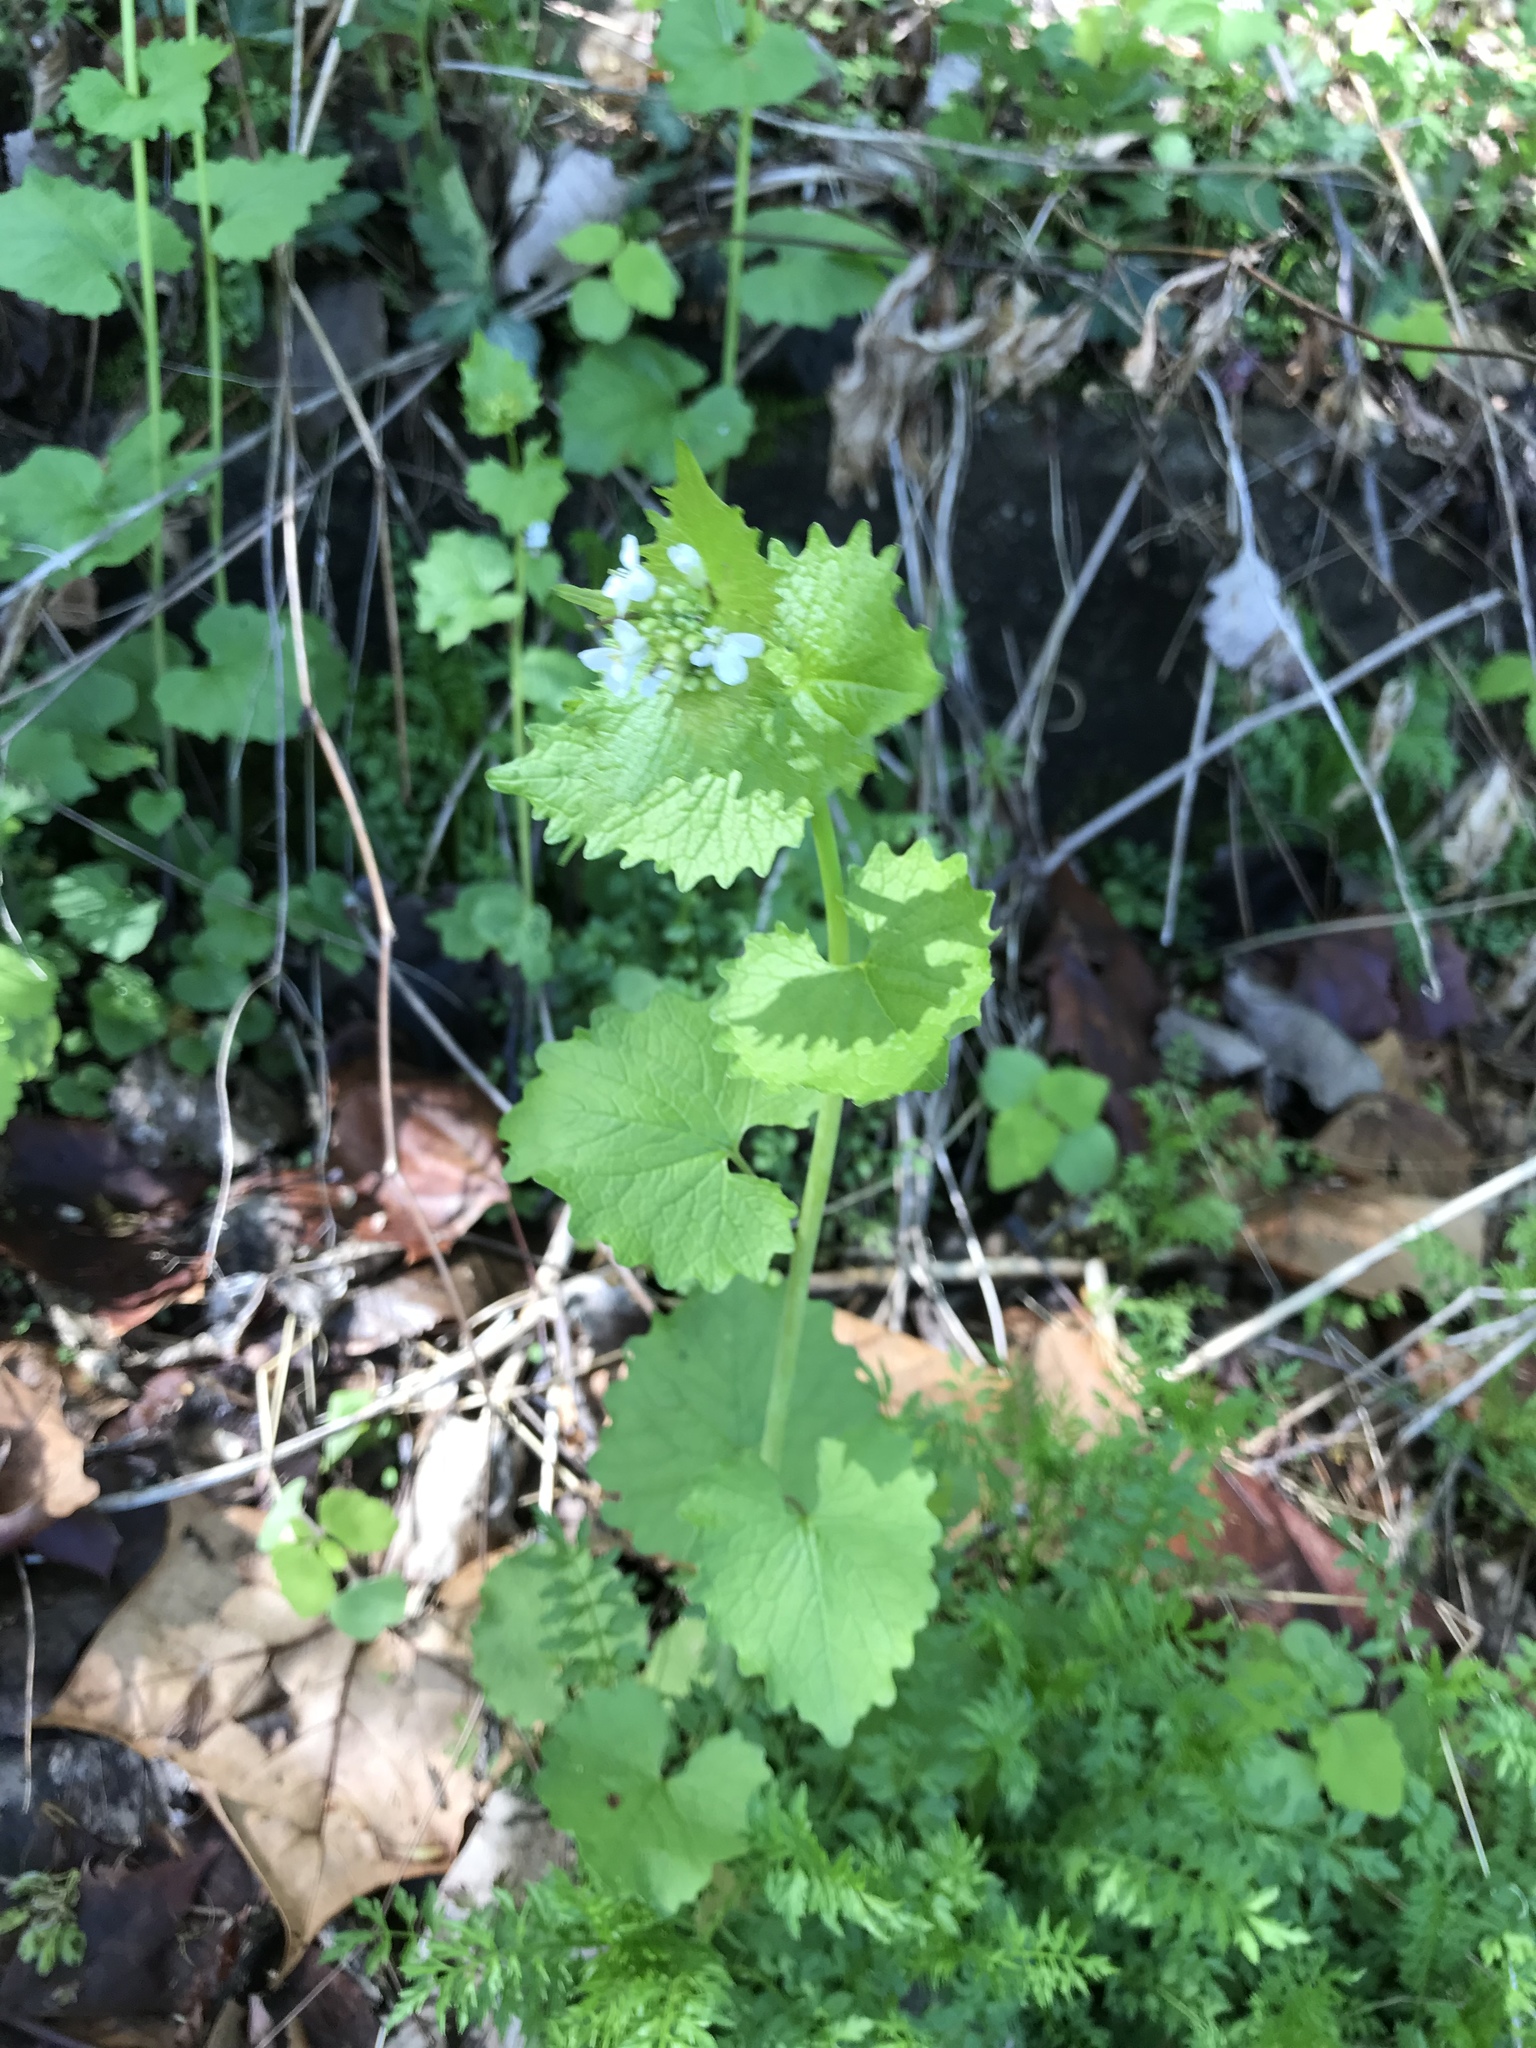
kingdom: Plantae
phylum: Tracheophyta
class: Magnoliopsida
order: Brassicales
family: Brassicaceae
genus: Alliaria
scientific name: Alliaria petiolata
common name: Garlic mustard
